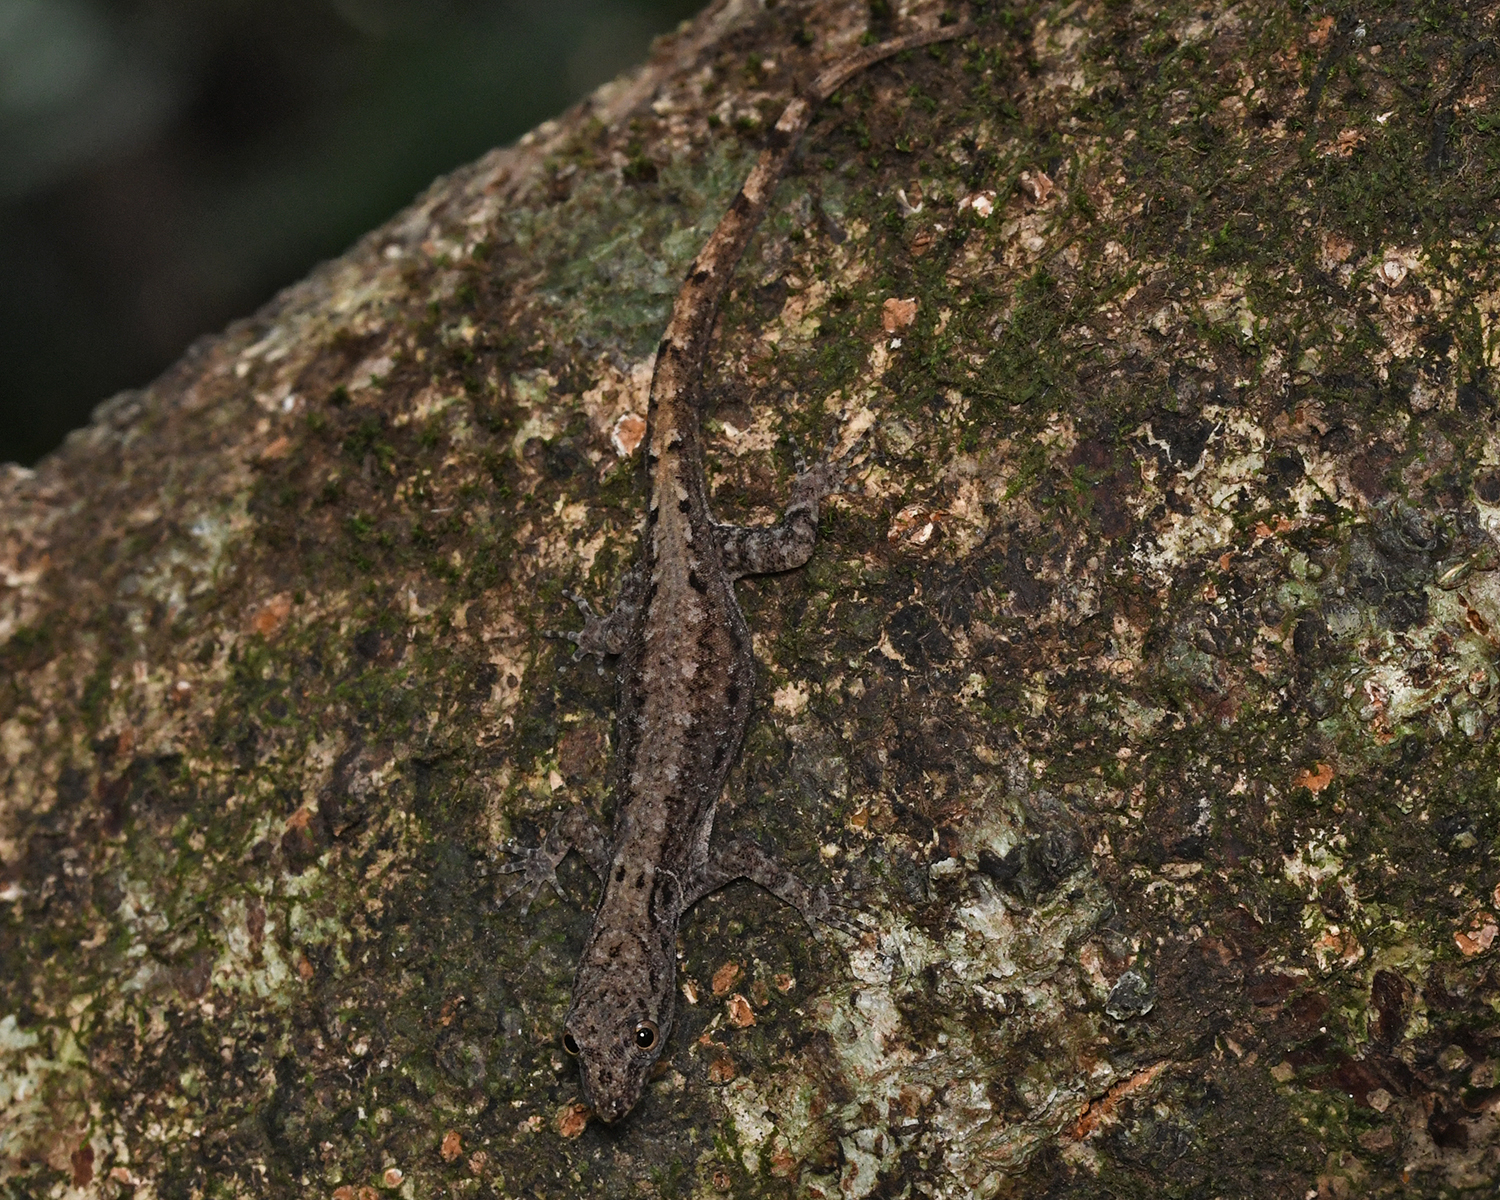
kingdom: Animalia
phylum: Chordata
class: Squamata
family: Sphaerodactylidae
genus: Gonatodes
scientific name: Gonatodes humeralis
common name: South american clawed gecko
